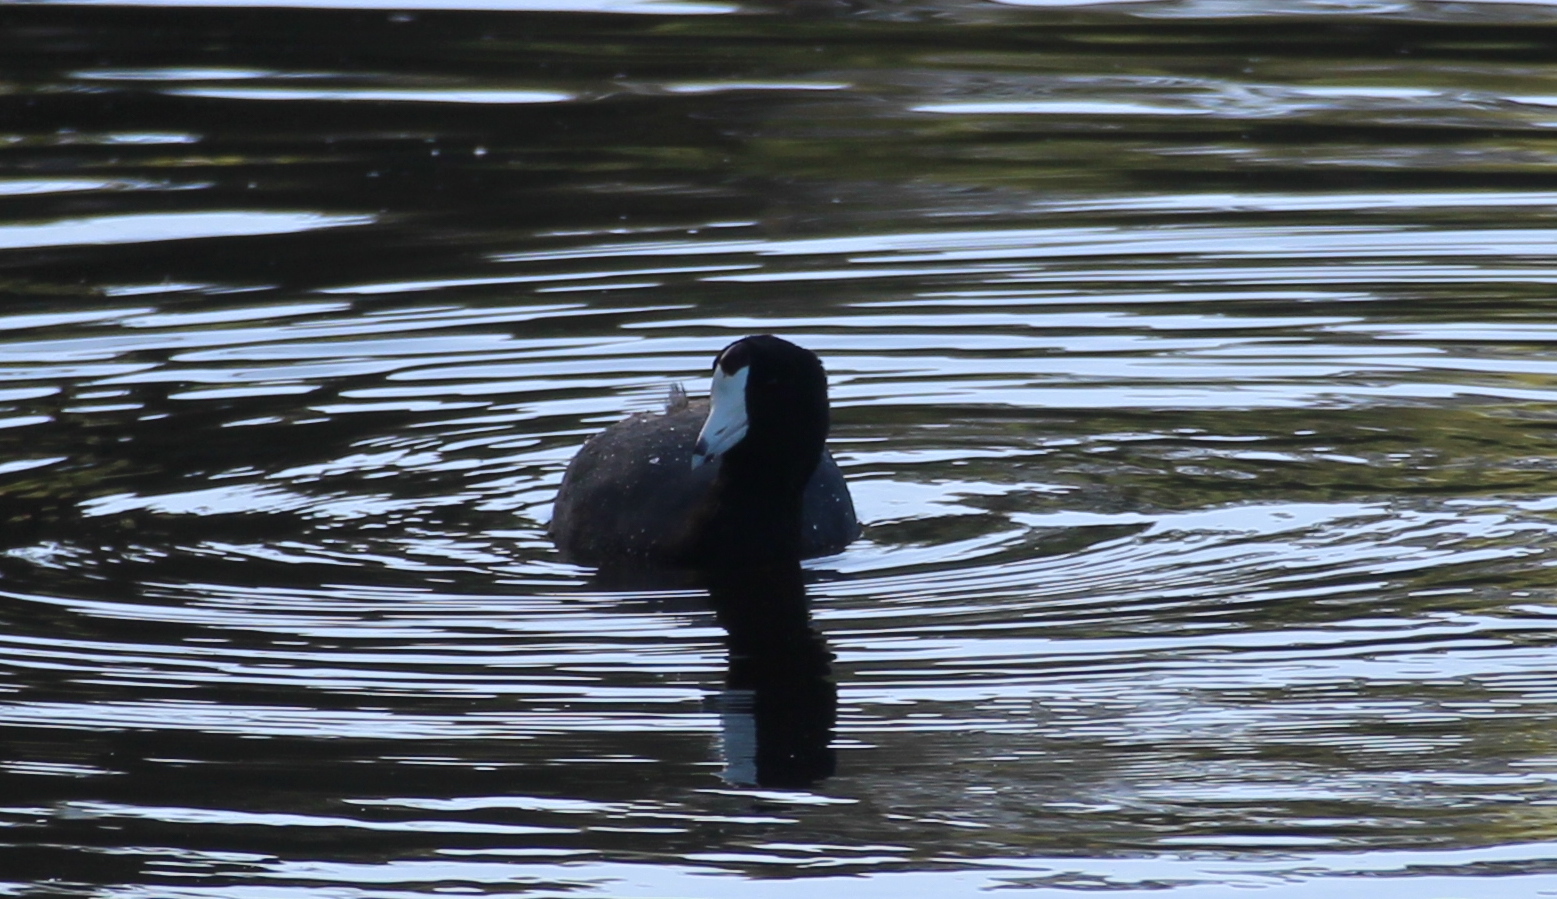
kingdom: Animalia
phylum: Chordata
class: Aves
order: Gruiformes
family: Rallidae
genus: Fulica
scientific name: Fulica americana
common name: American coot
